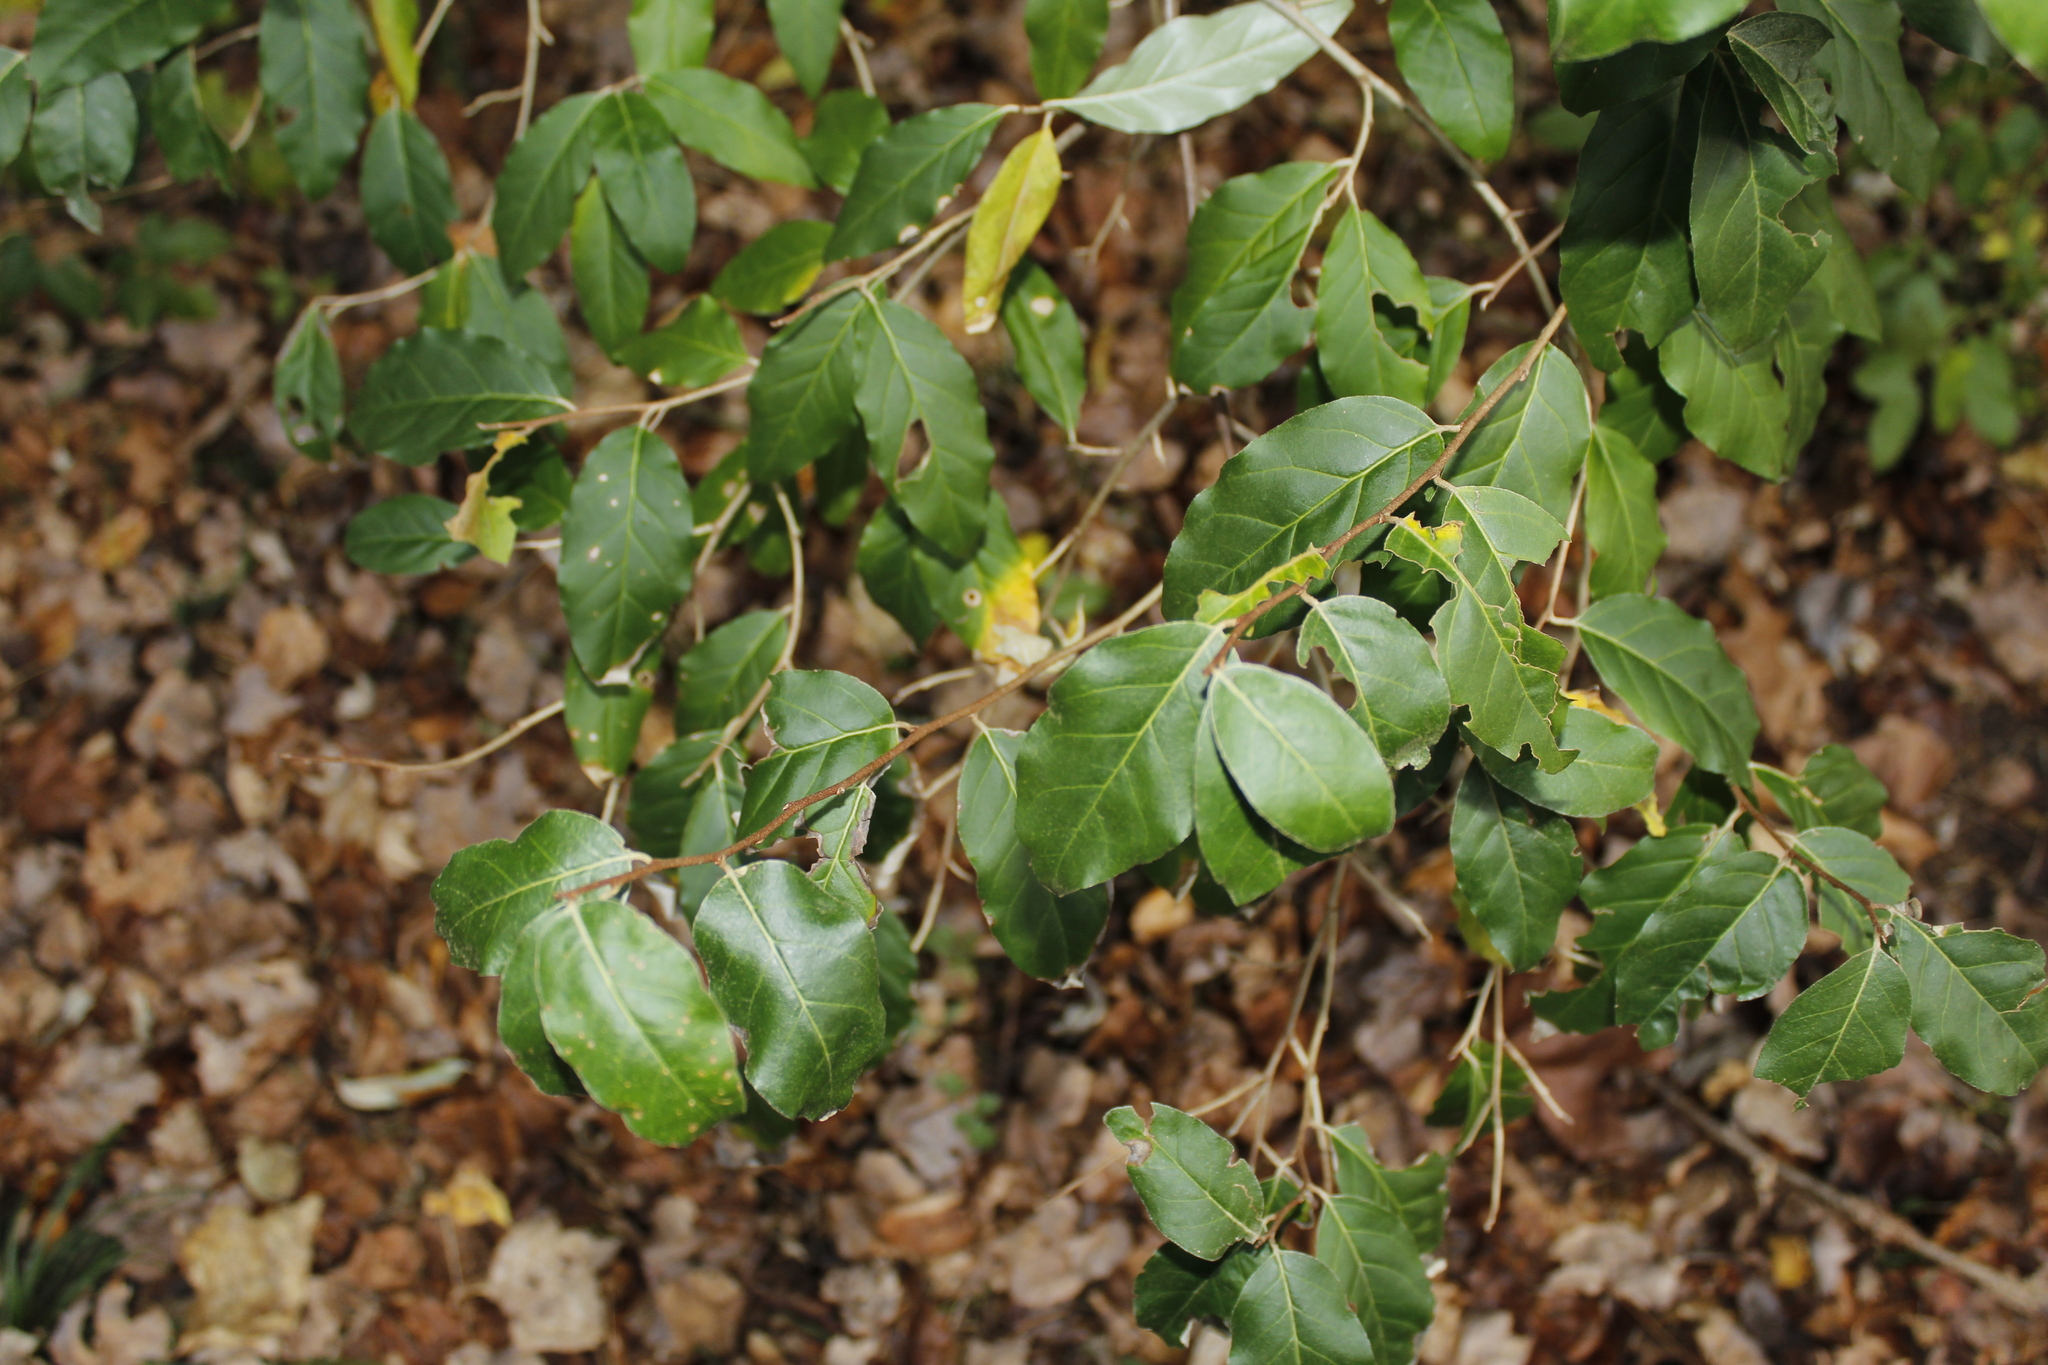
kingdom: Plantae
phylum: Tracheophyta
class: Magnoliopsida
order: Rosales
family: Elaeagnaceae
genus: Elaeagnus
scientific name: Elaeagnus umbellata
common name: Autumn olive
